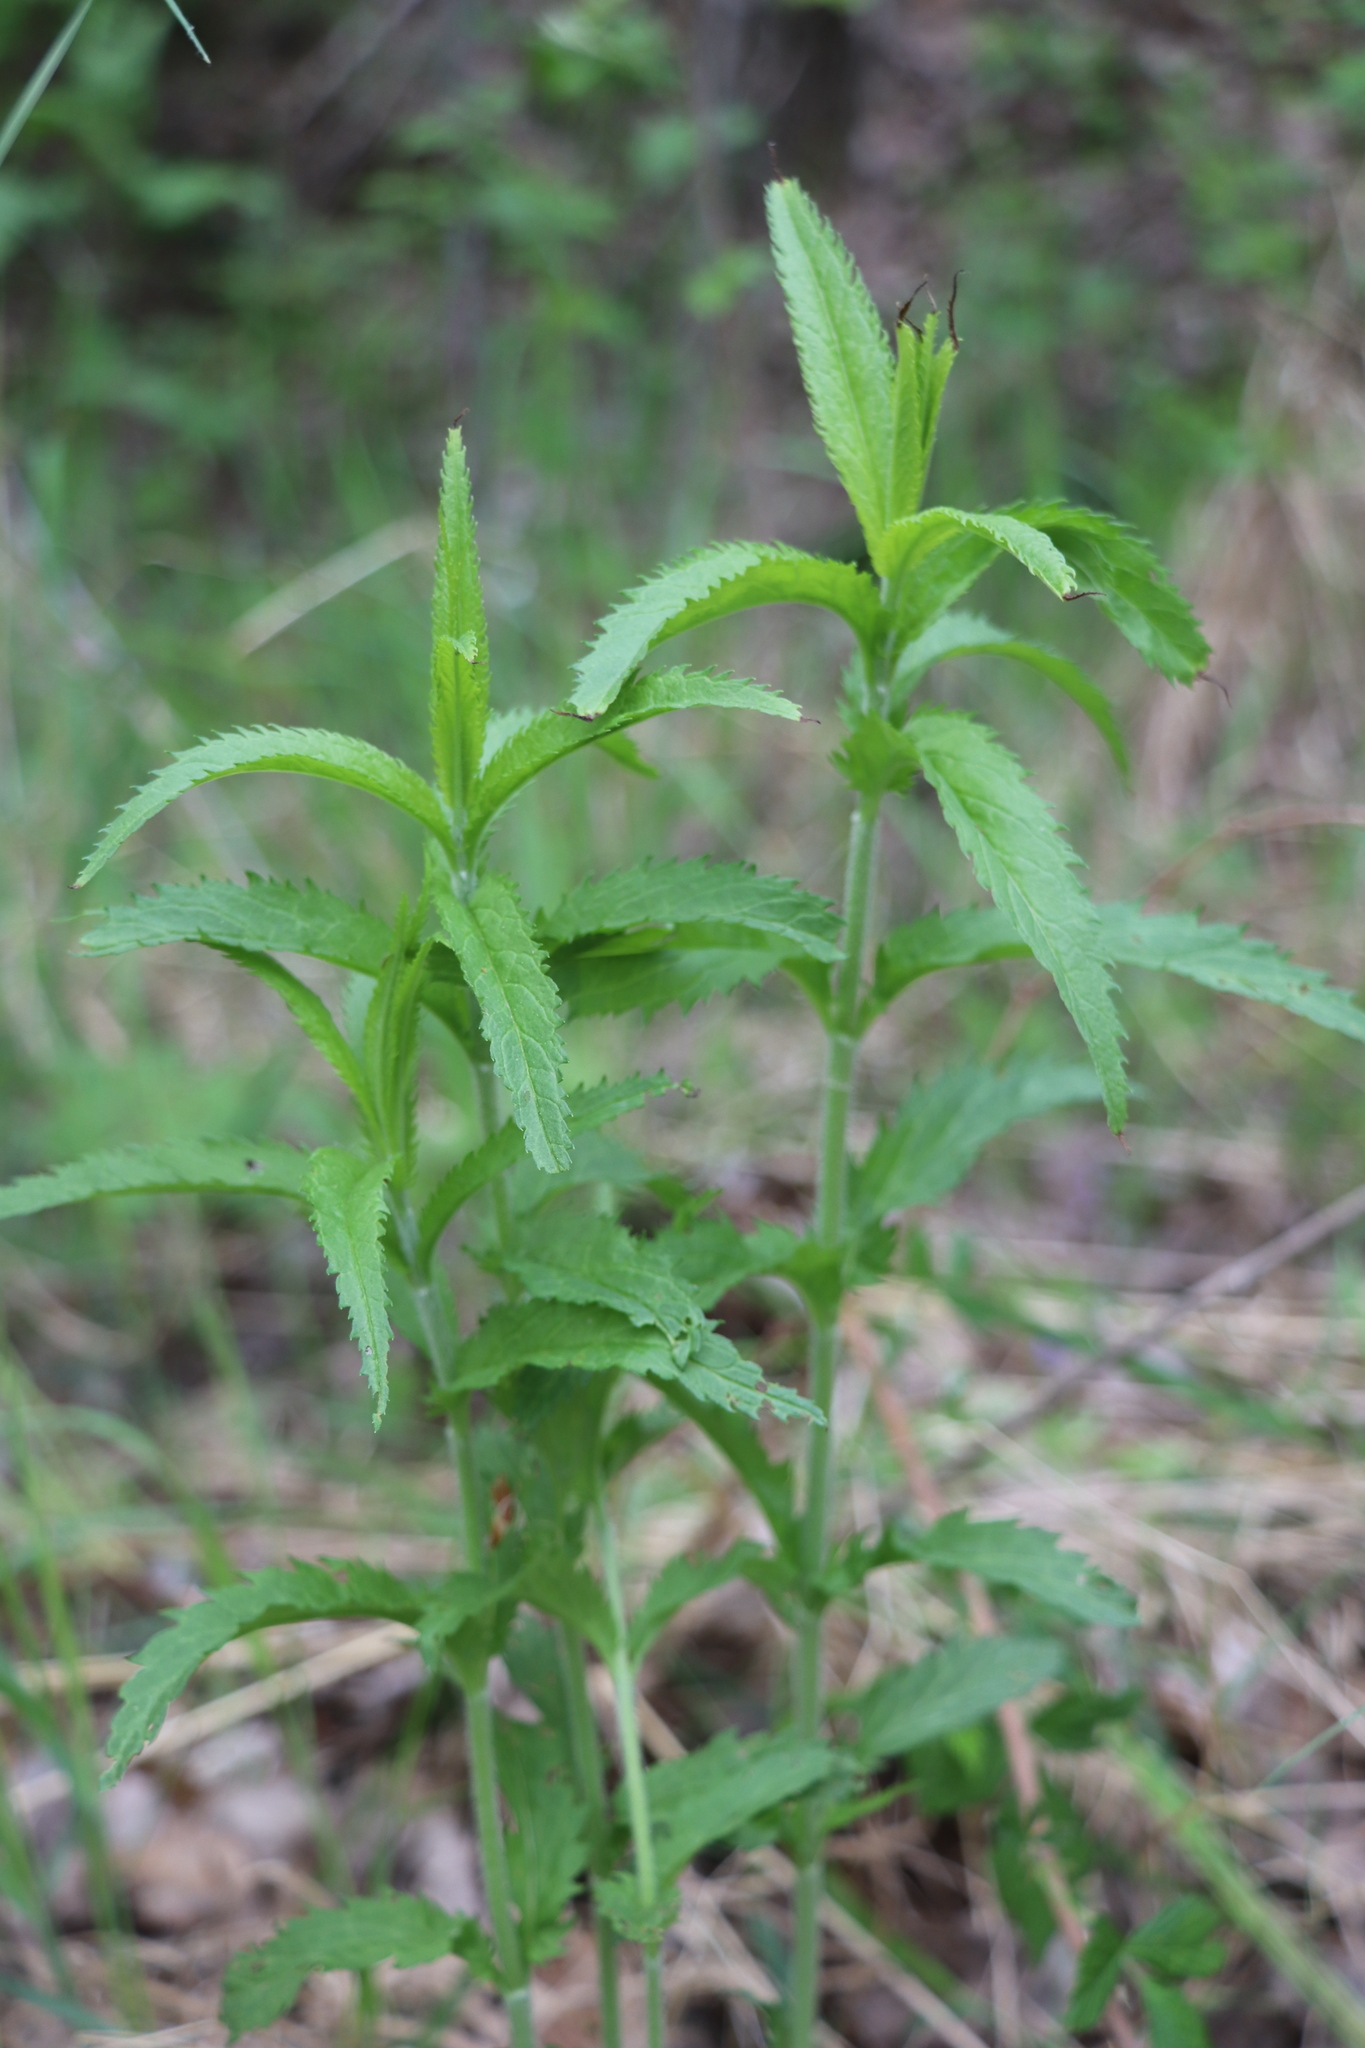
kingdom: Plantae
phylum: Tracheophyta
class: Magnoliopsida
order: Lamiales
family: Plantaginaceae
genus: Veronica
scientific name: Veronica longifolia
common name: Garden speedwell
